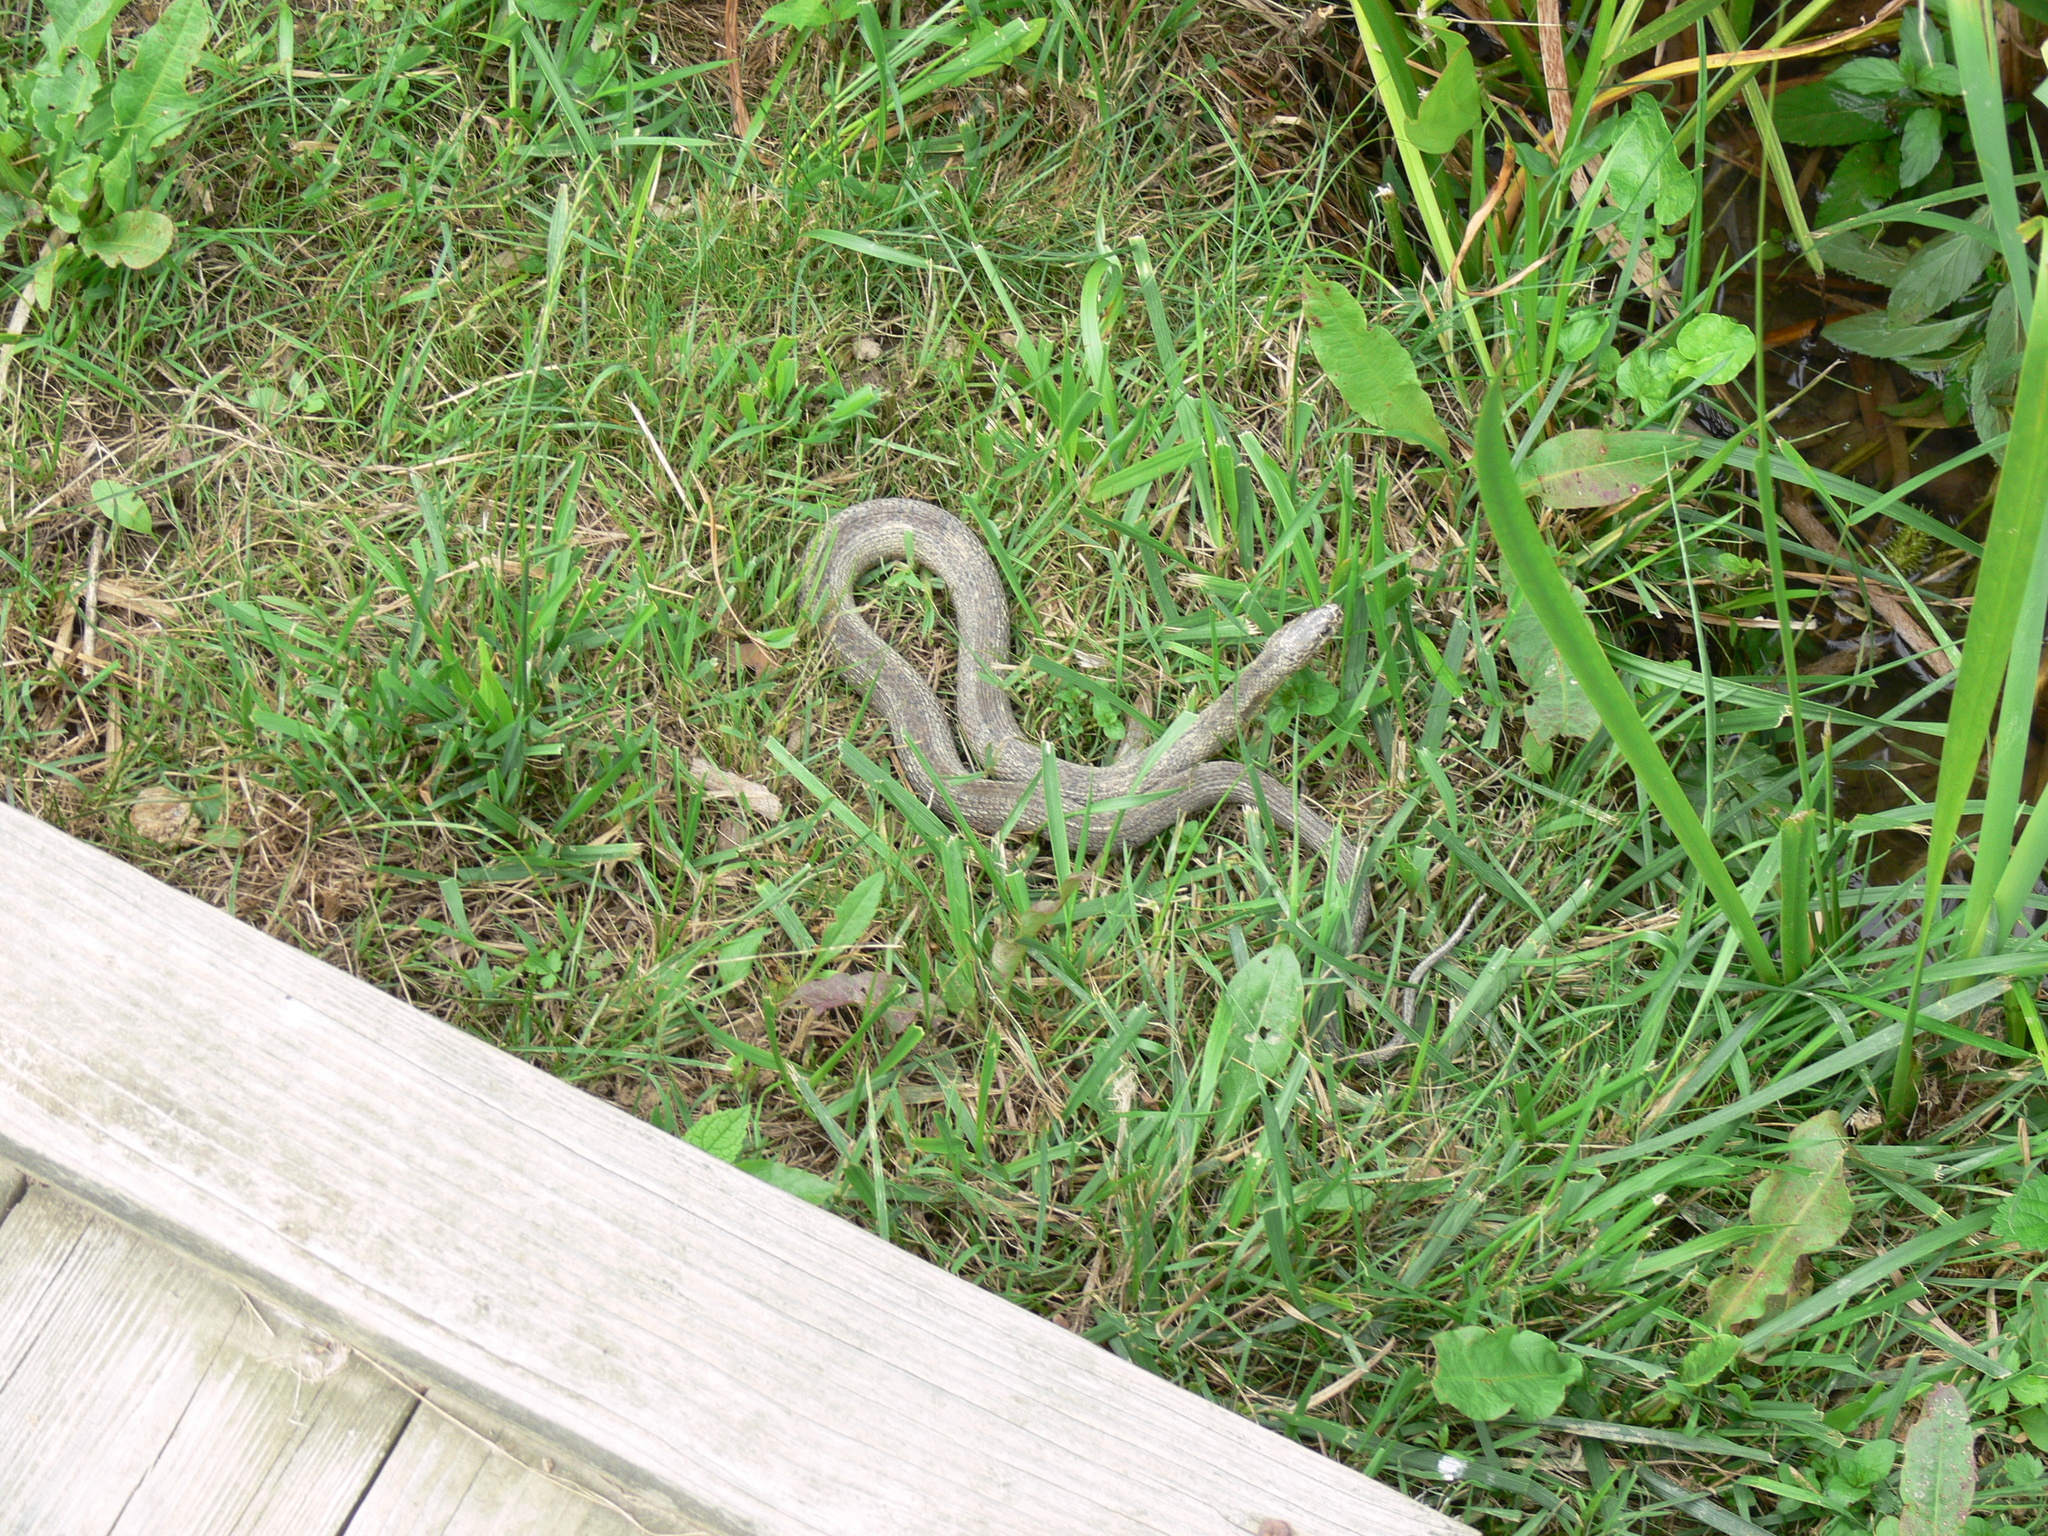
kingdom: Animalia
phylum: Chordata
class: Squamata
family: Colubridae
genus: Nerodia
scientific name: Nerodia sipedon
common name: Northern water snake
